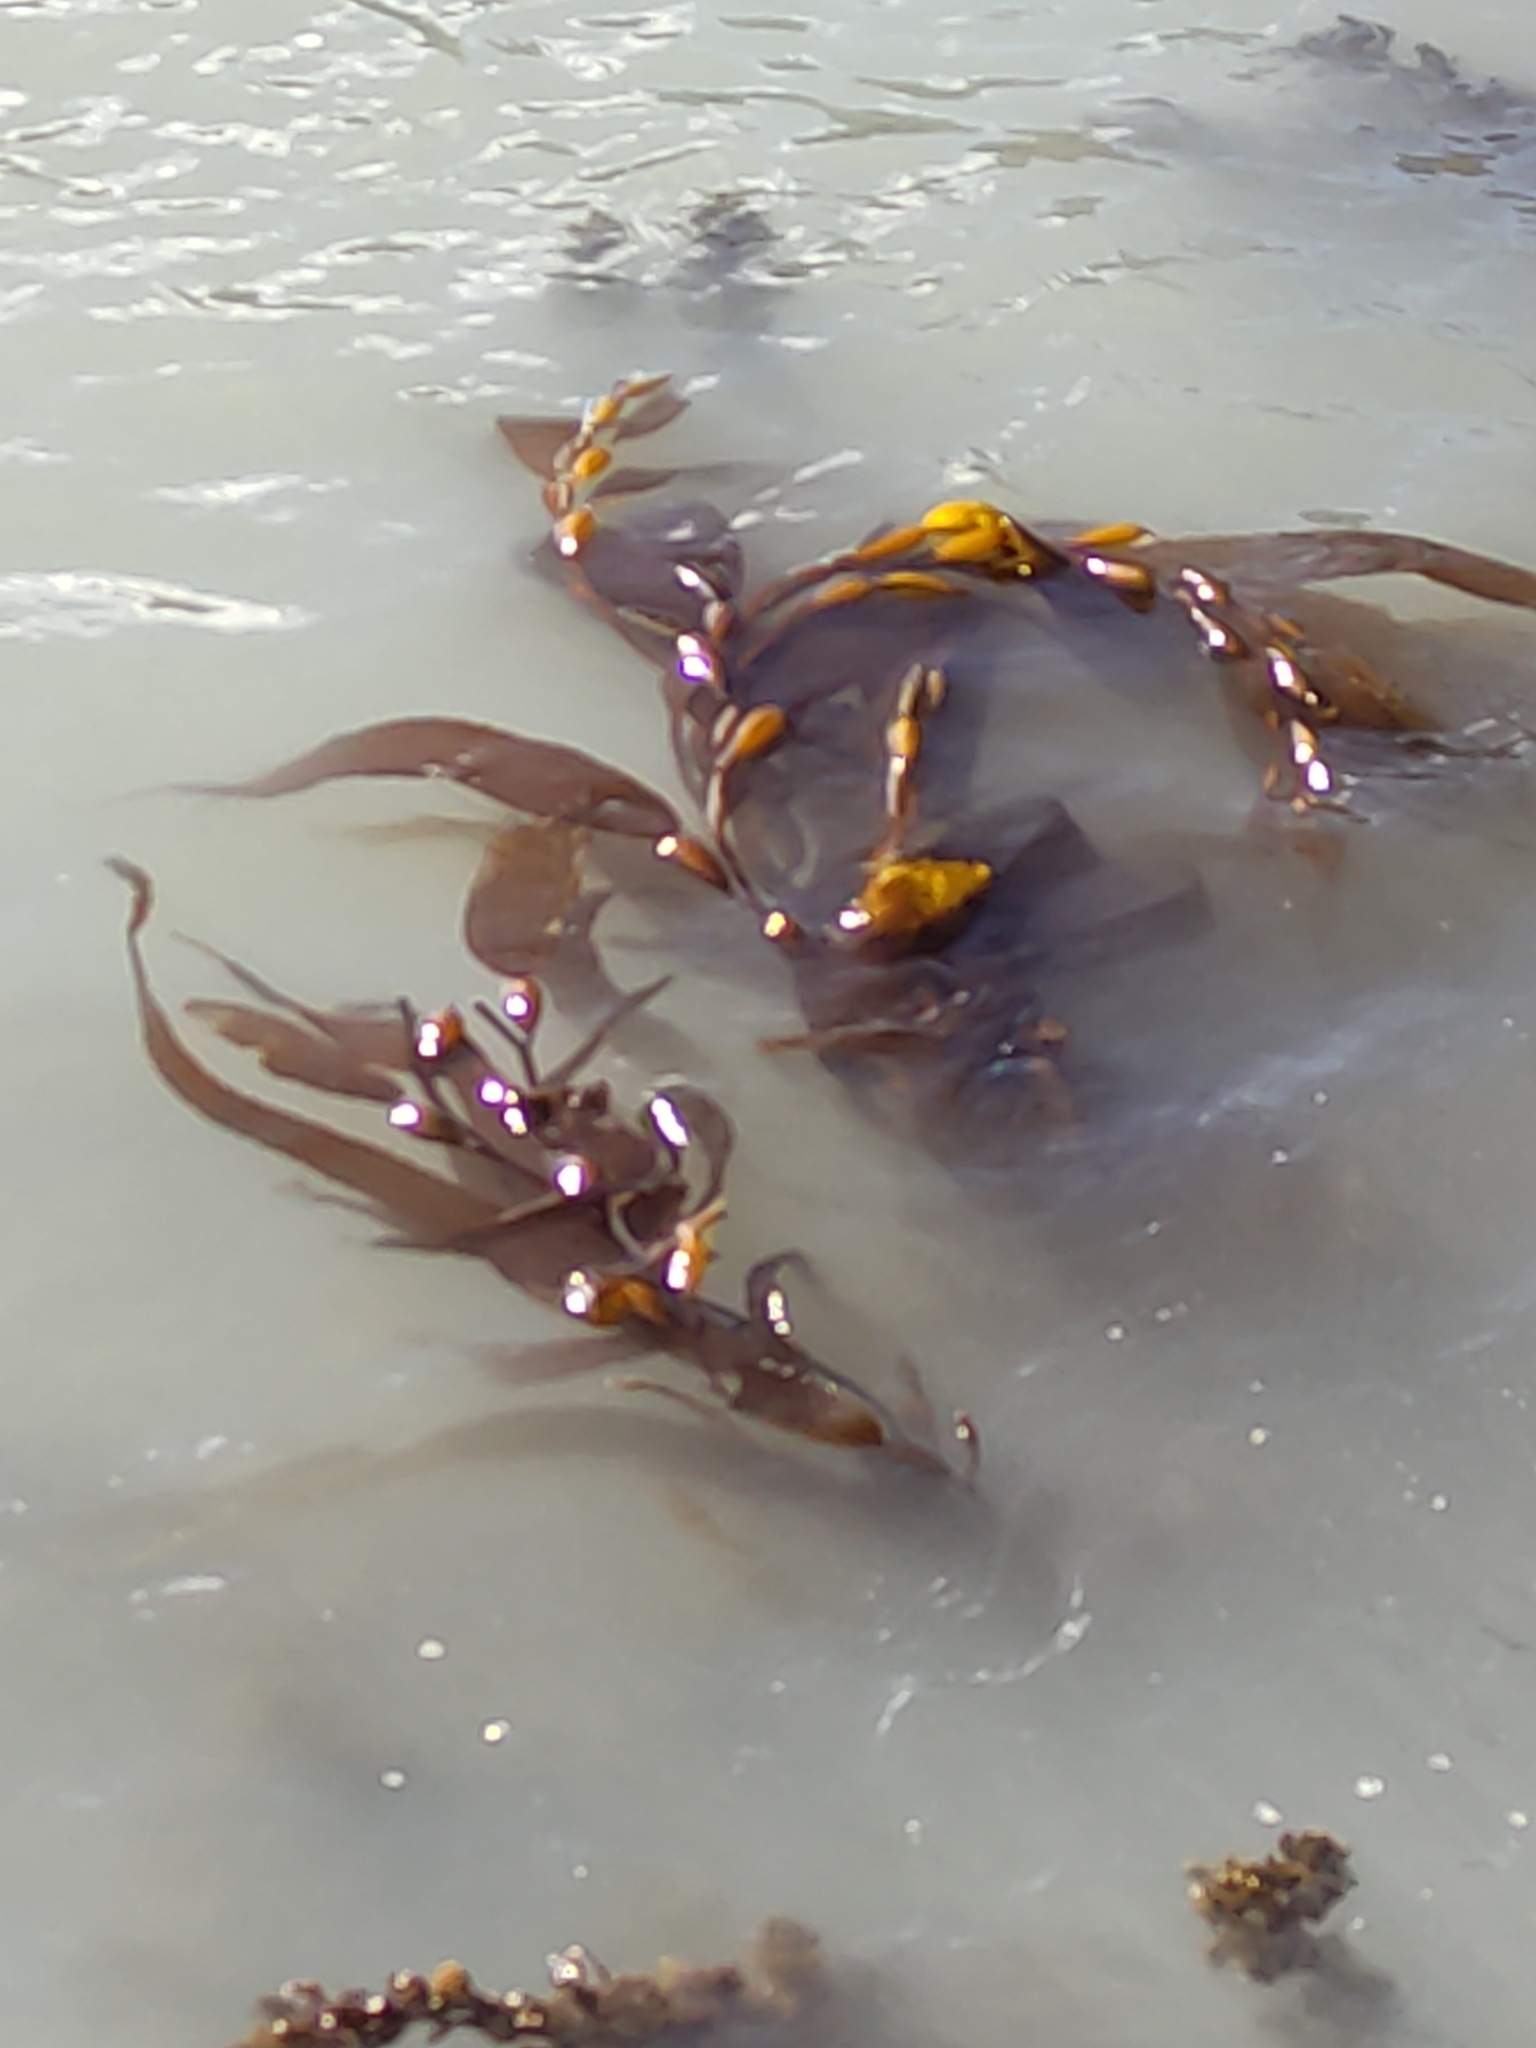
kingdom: Chromista
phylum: Ochrophyta
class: Phaeophyceae
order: Laminariales
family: Laminariaceae
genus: Macrocystis
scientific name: Macrocystis pyrifera
